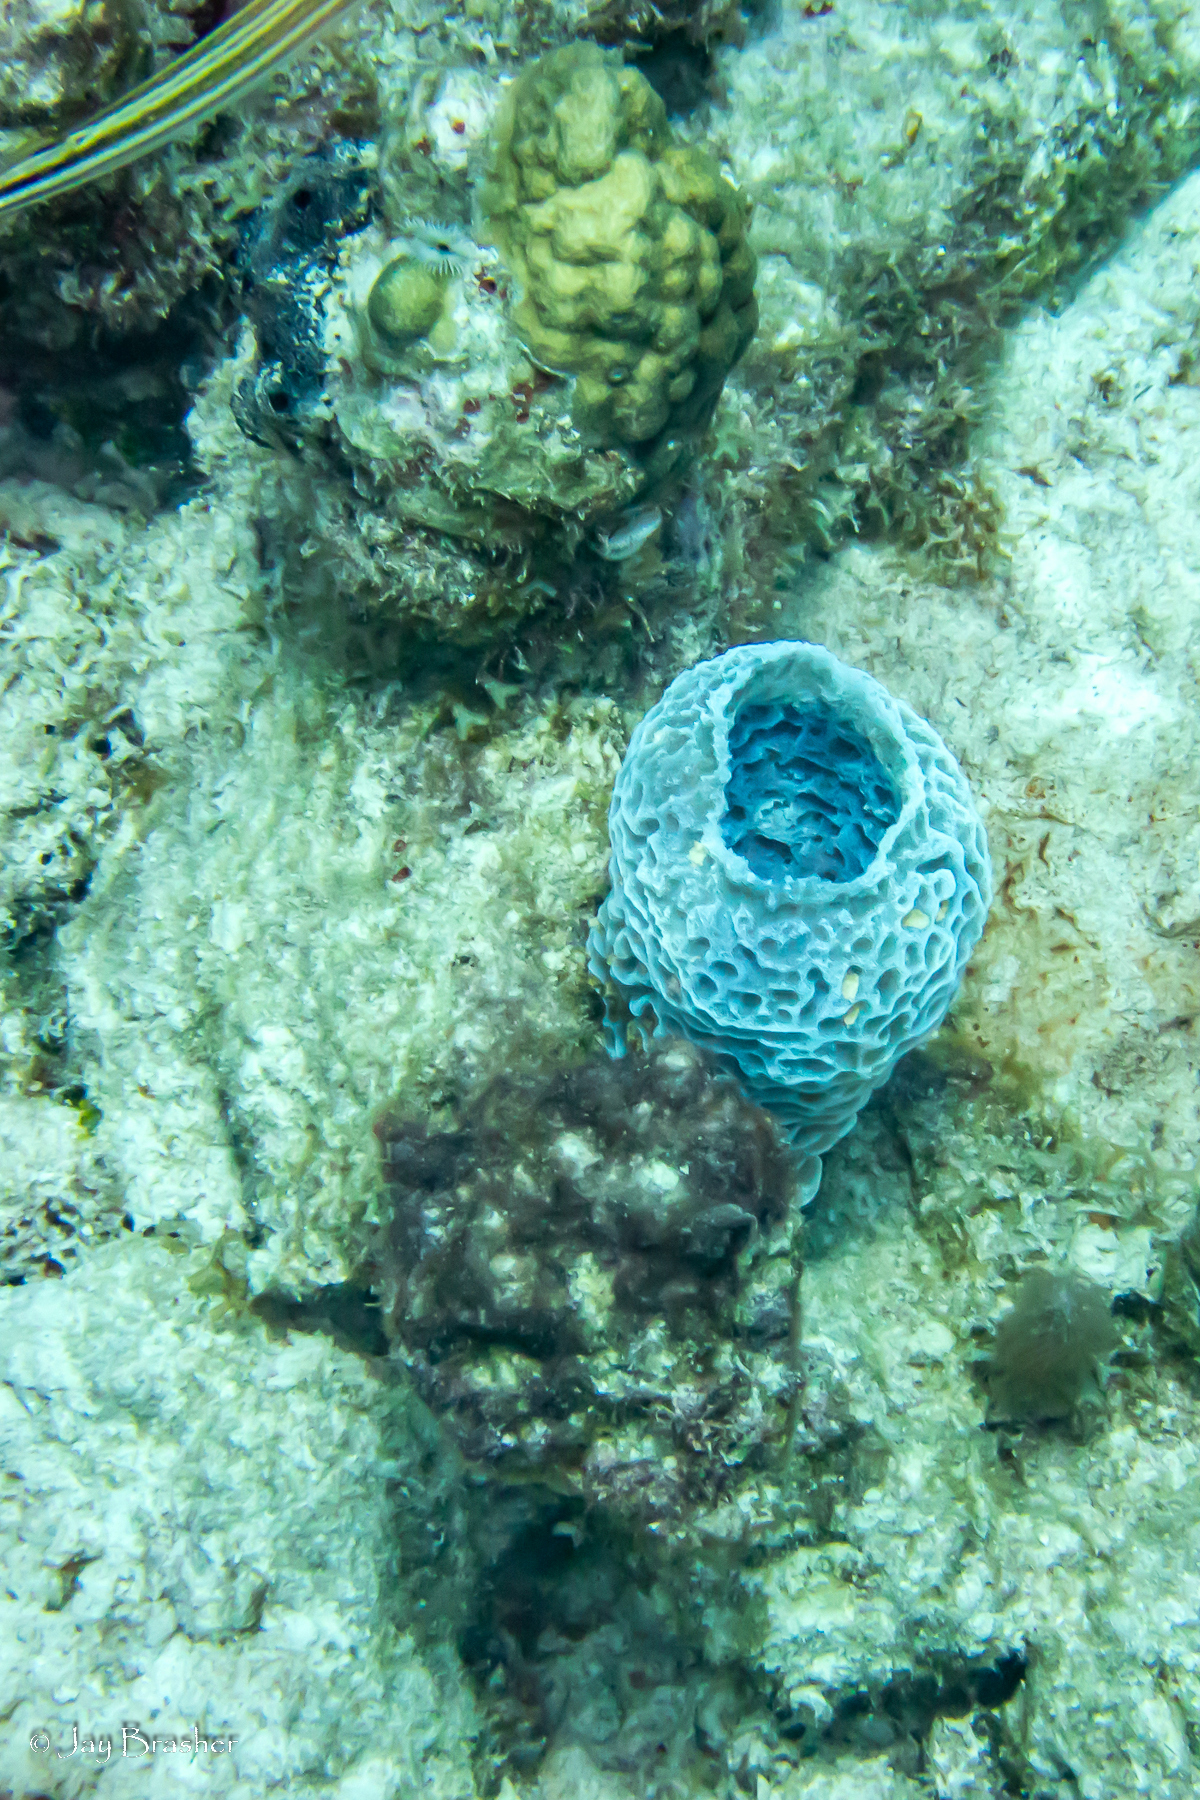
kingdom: Animalia
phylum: Porifera
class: Demospongiae
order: Haplosclerida
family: Callyspongiidae
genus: Callyspongia
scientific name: Callyspongia plicifera
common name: Azure vase sponge
